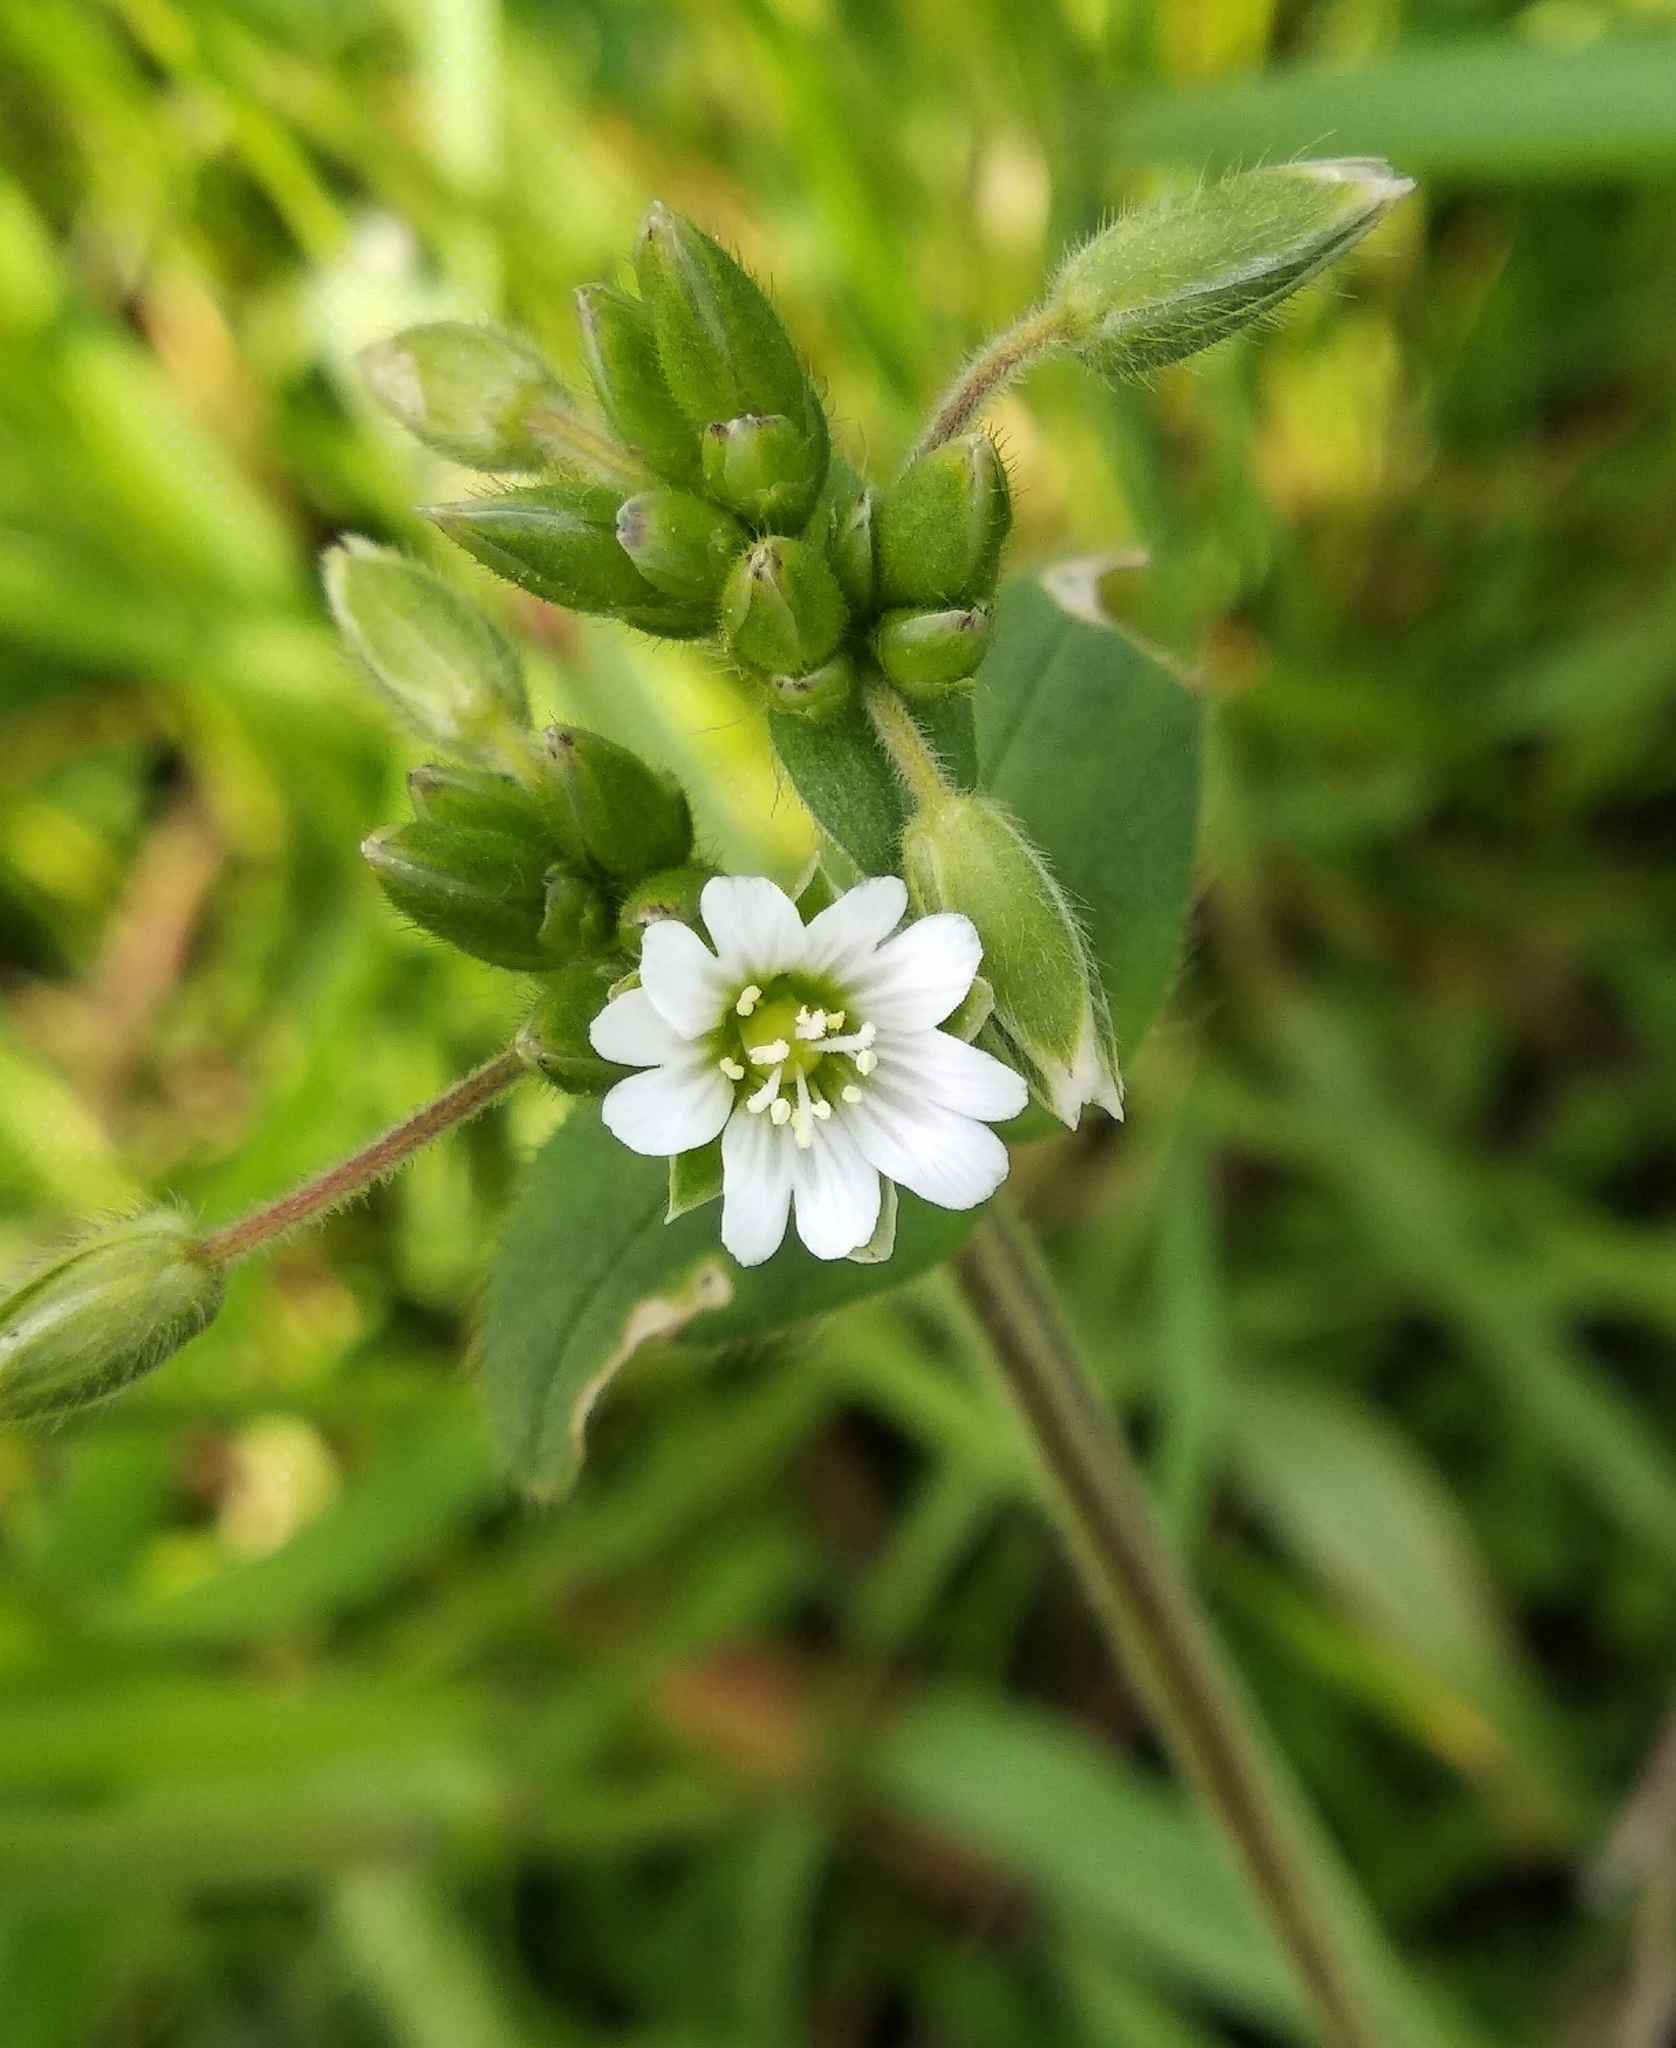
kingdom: Plantae
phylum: Tracheophyta
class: Magnoliopsida
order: Caryophyllales
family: Caryophyllaceae
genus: Cerastium
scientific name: Cerastium holosteoides
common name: Big chickweed
